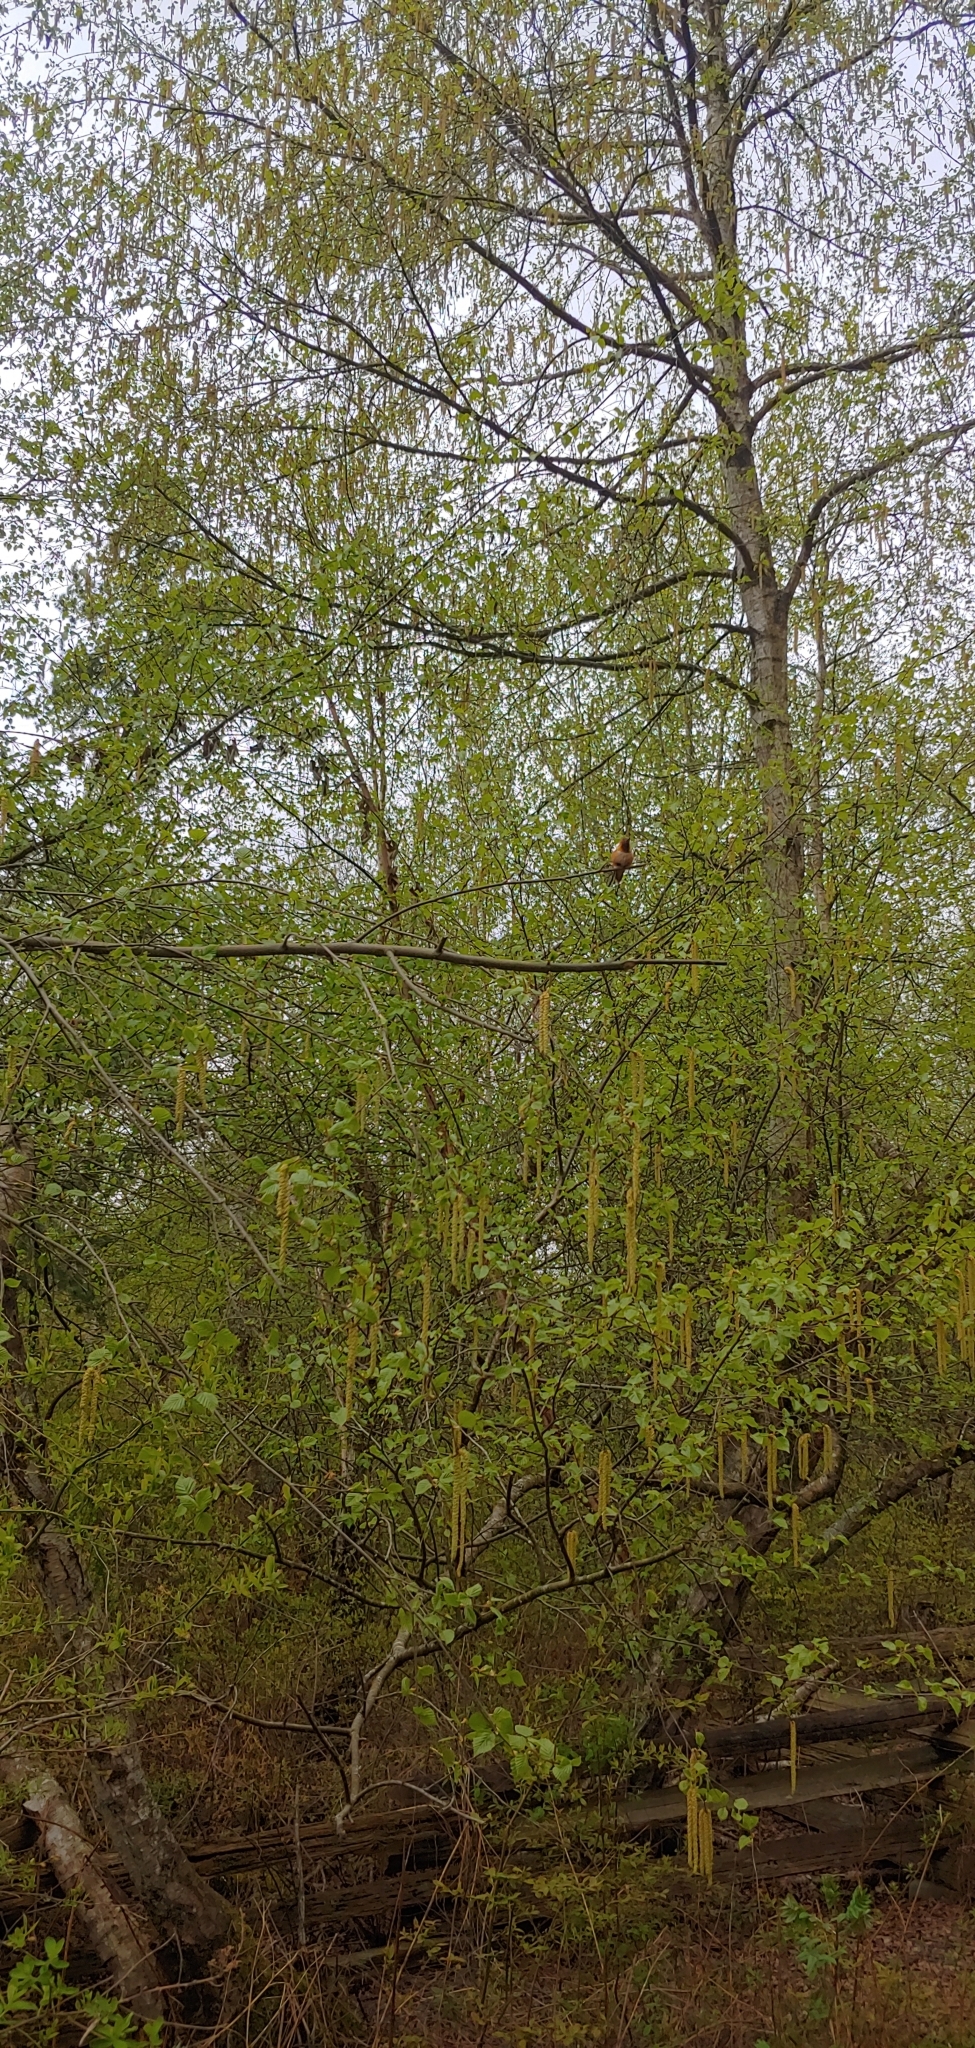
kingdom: Animalia
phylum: Chordata
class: Aves
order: Apodiformes
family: Trochilidae
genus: Selasphorus
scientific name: Selasphorus rufus
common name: Rufous hummingbird
